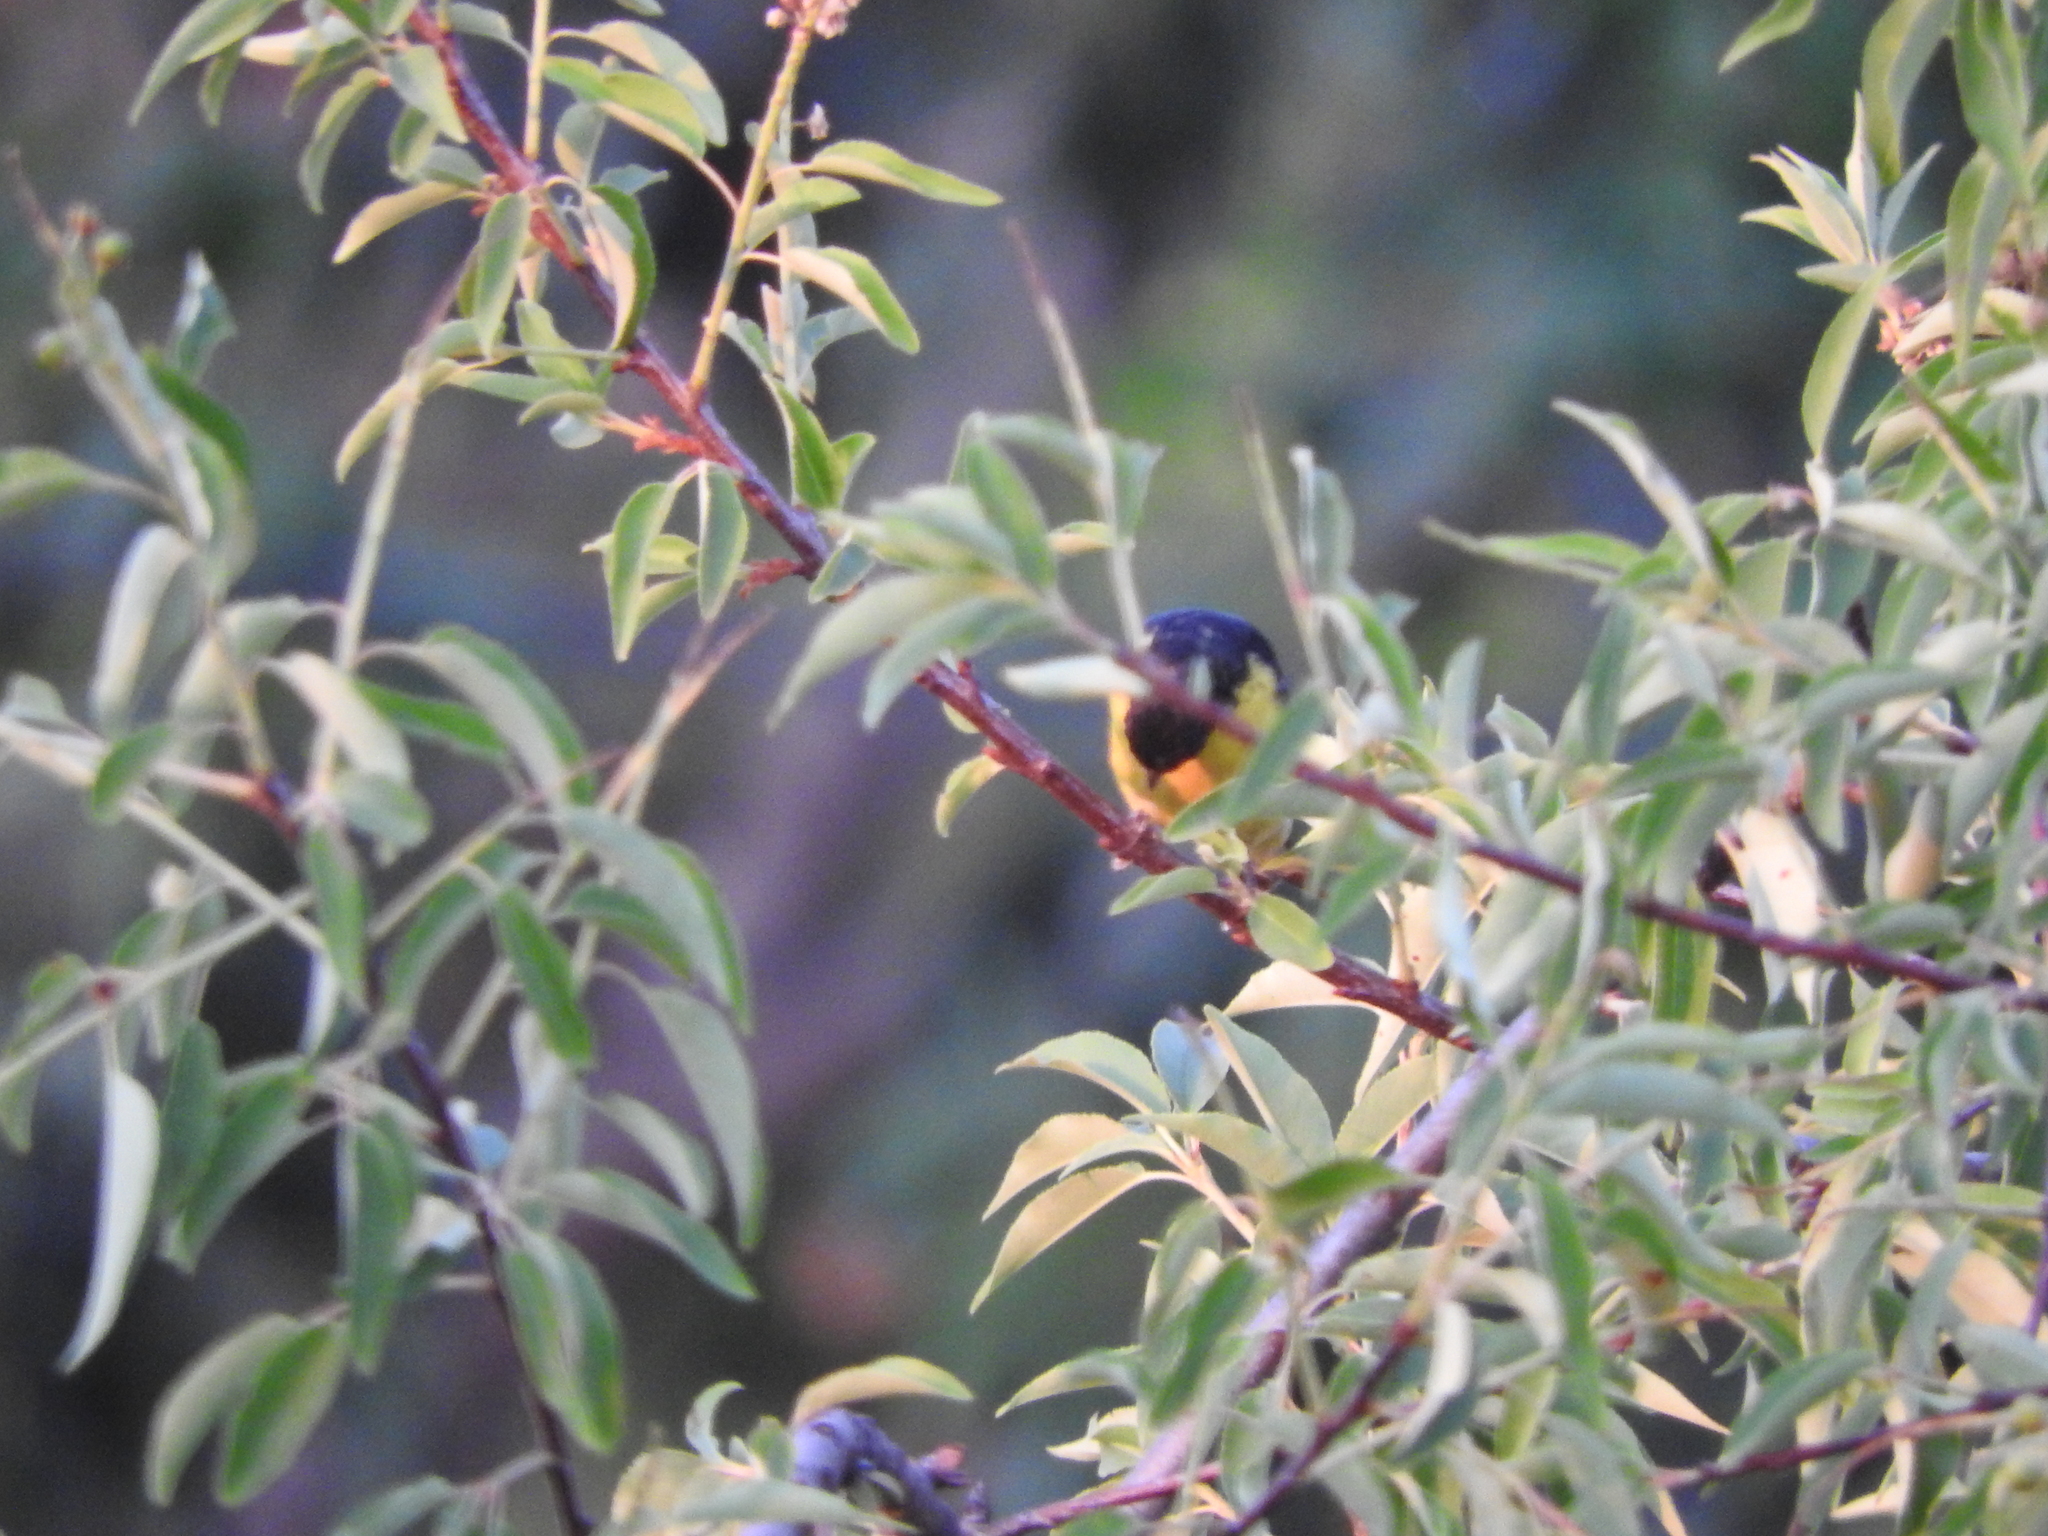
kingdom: Animalia
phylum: Chordata
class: Aves
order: Passeriformes
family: Fringillidae
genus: Spinus
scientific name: Spinus psaltria
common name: Lesser goldfinch
